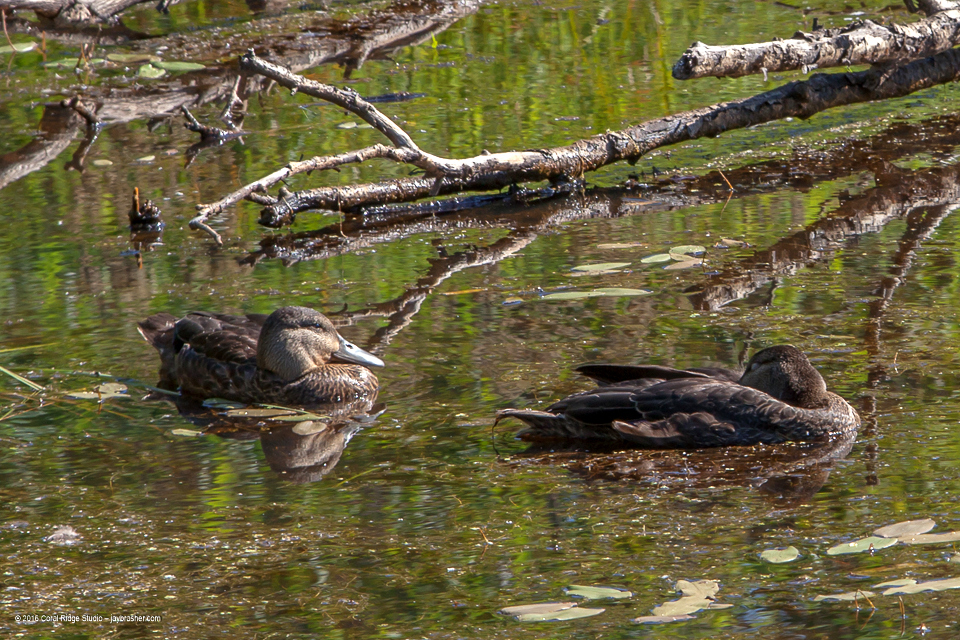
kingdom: Animalia
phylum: Chordata
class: Aves
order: Anseriformes
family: Anatidae
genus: Anas
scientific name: Anas rubripes
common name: American black duck
